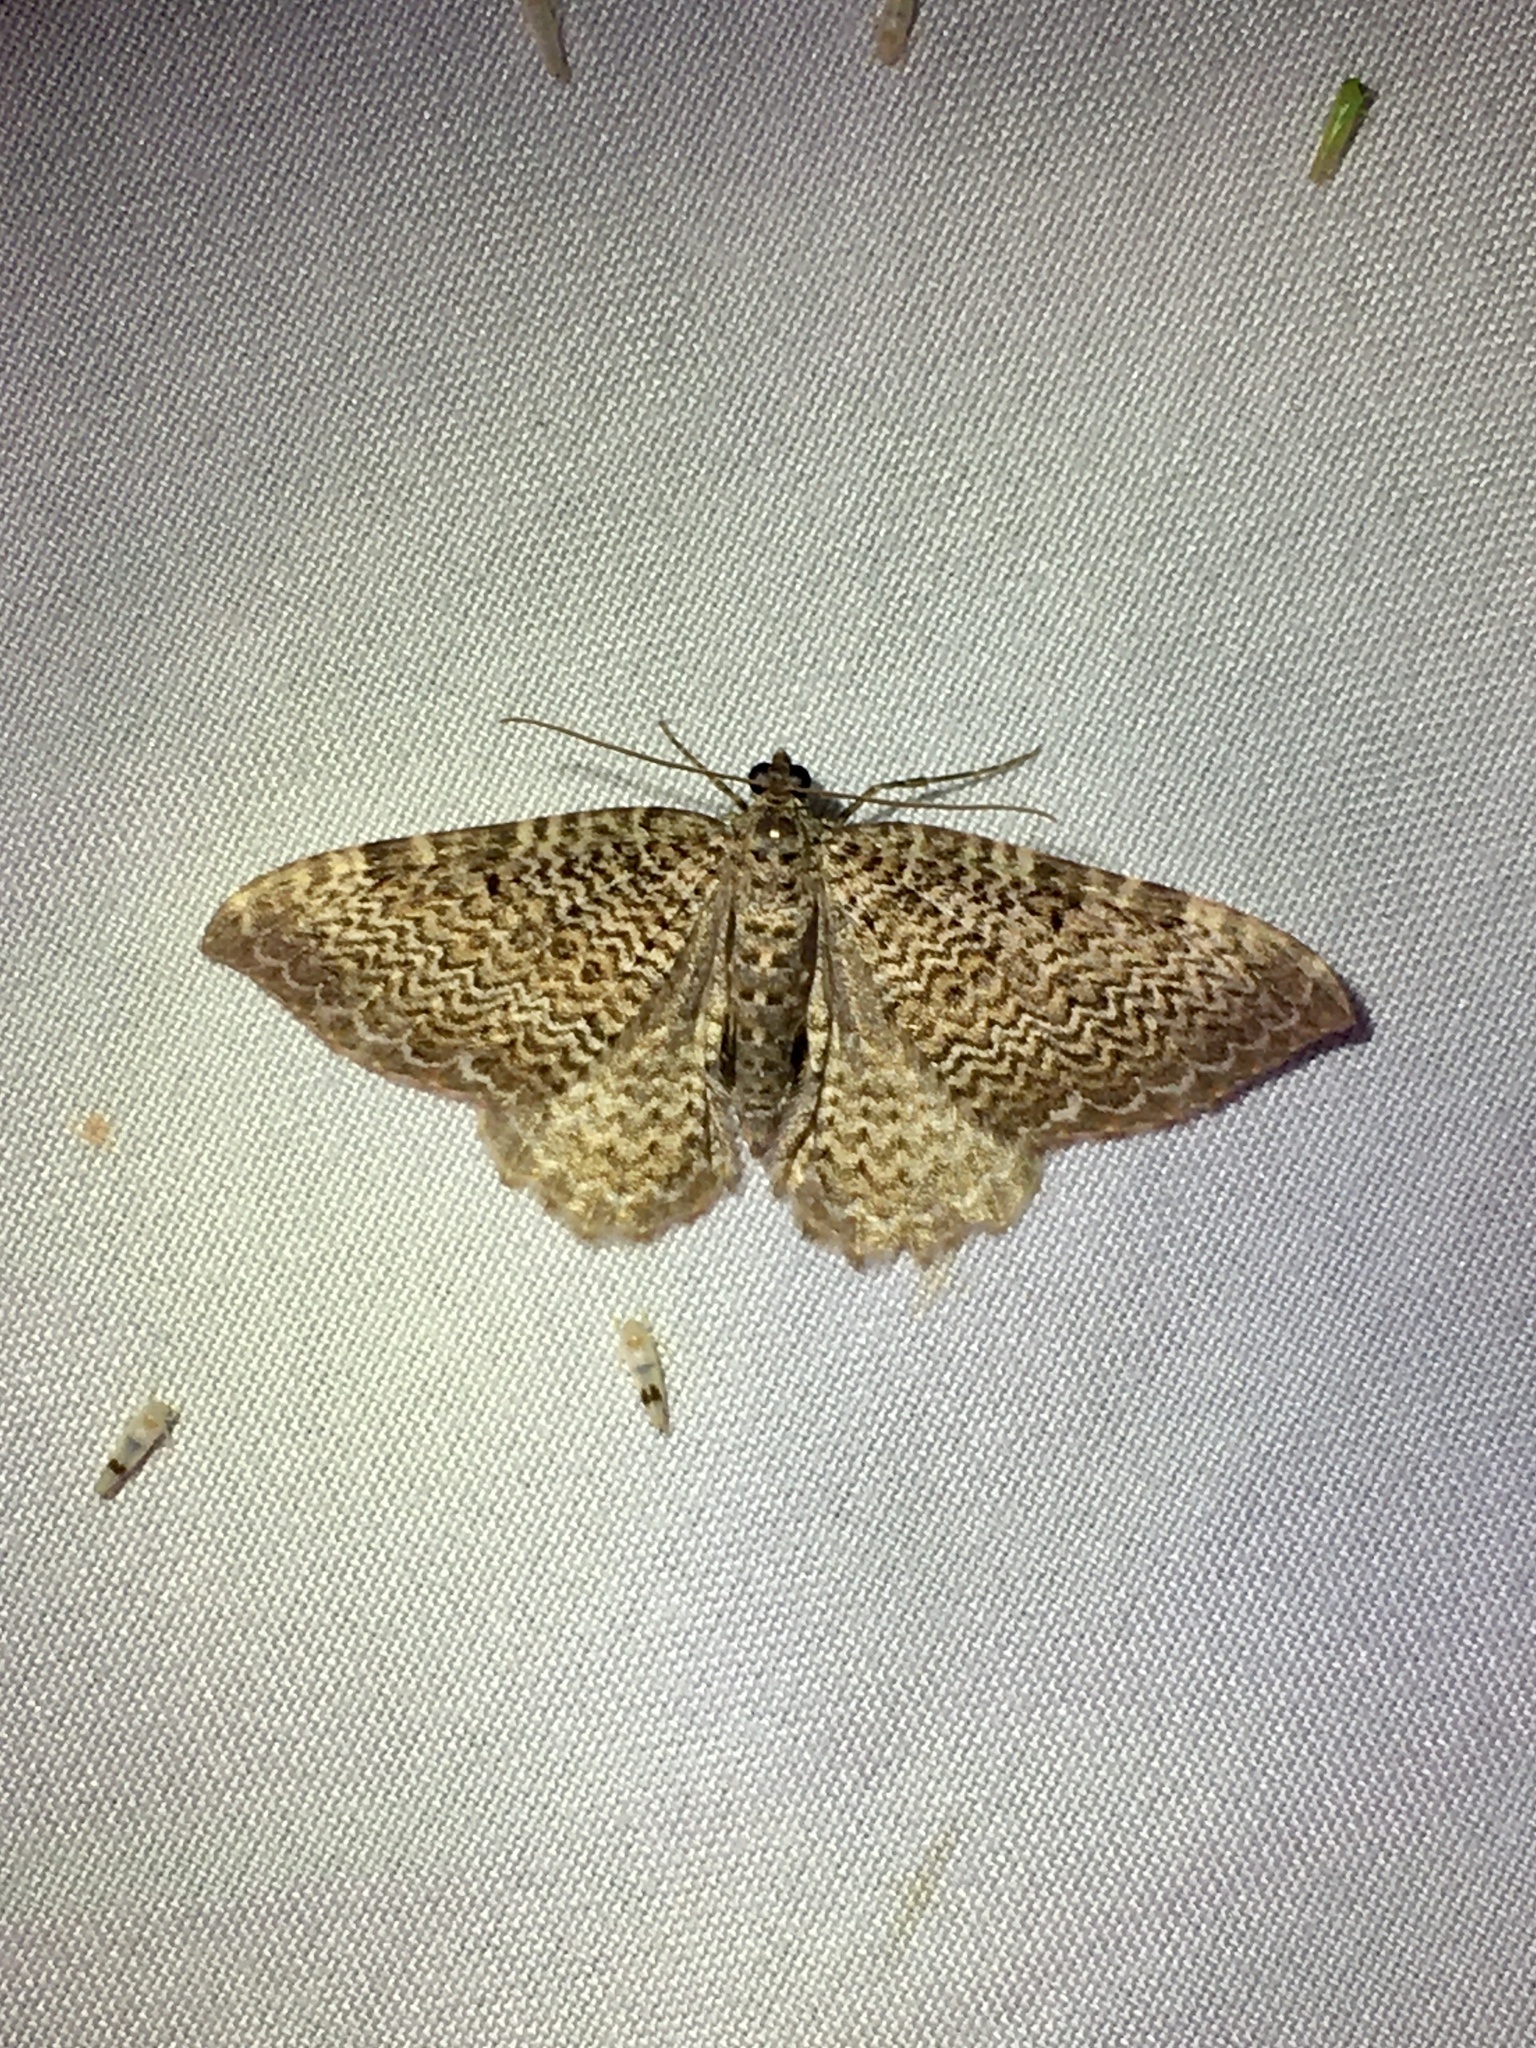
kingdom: Animalia
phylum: Arthropoda
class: Insecta
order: Lepidoptera
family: Geometridae
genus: Rheumaptera
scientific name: Rheumaptera
